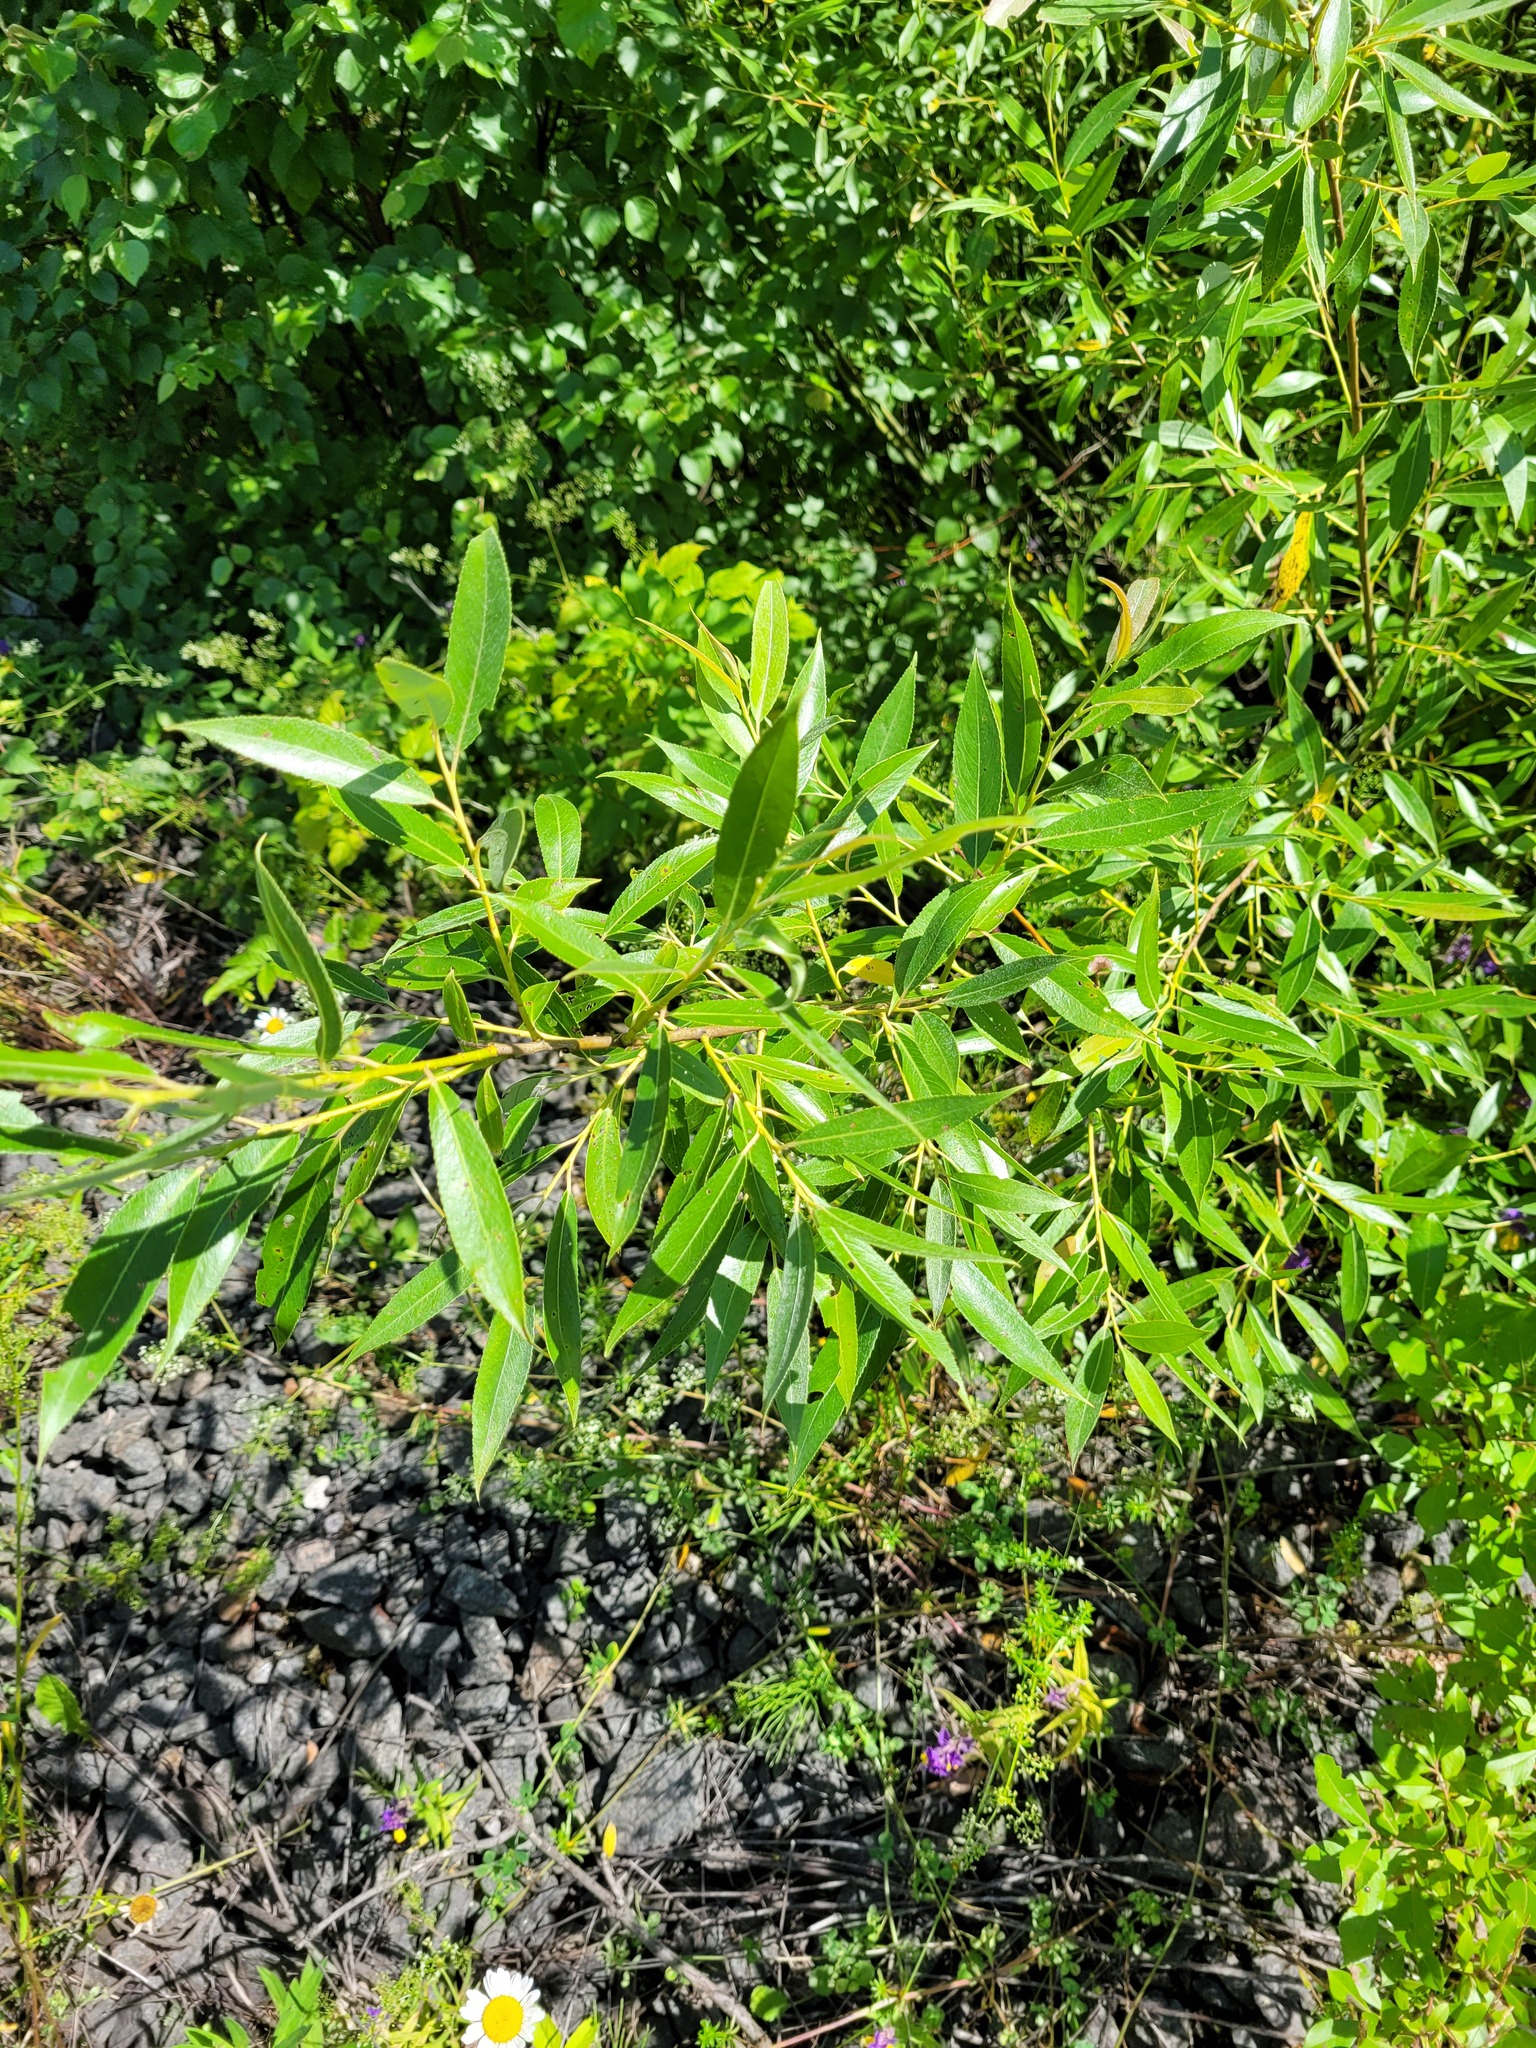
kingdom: Plantae
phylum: Tracheophyta
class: Magnoliopsida
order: Malpighiales
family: Salicaceae
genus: Salix
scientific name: Salix fragilis
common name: Crack willow
